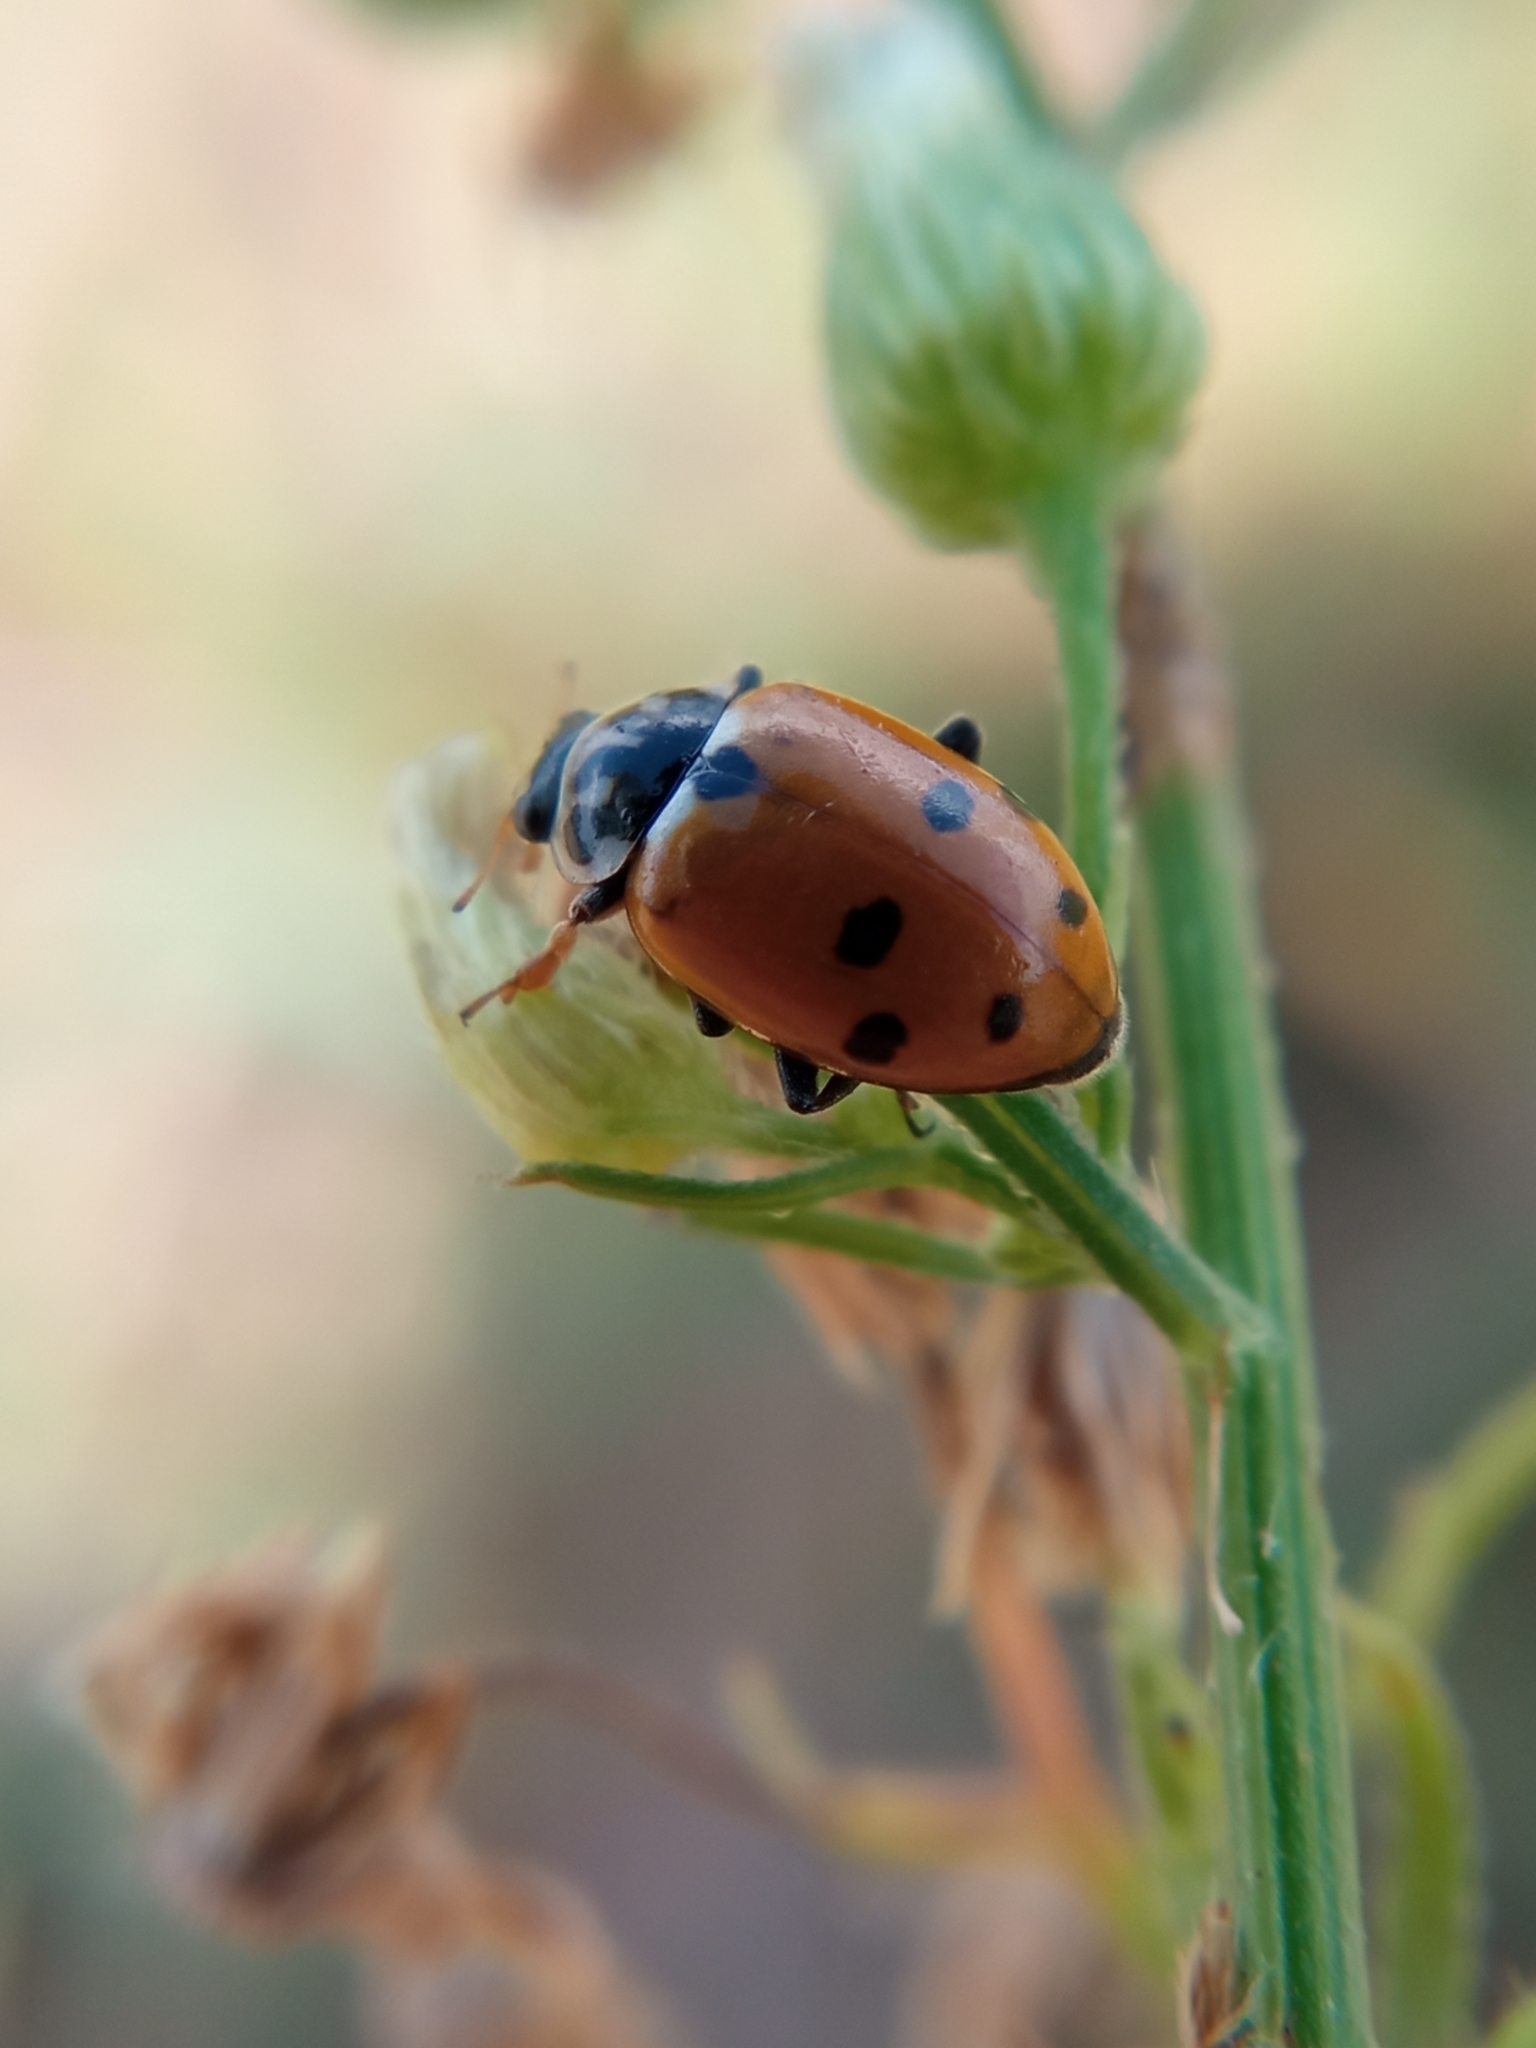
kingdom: Animalia
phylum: Arthropoda
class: Insecta
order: Coleoptera
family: Coccinellidae
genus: Hippodamia
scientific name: Hippodamia variegata
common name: Ladybird beetle
